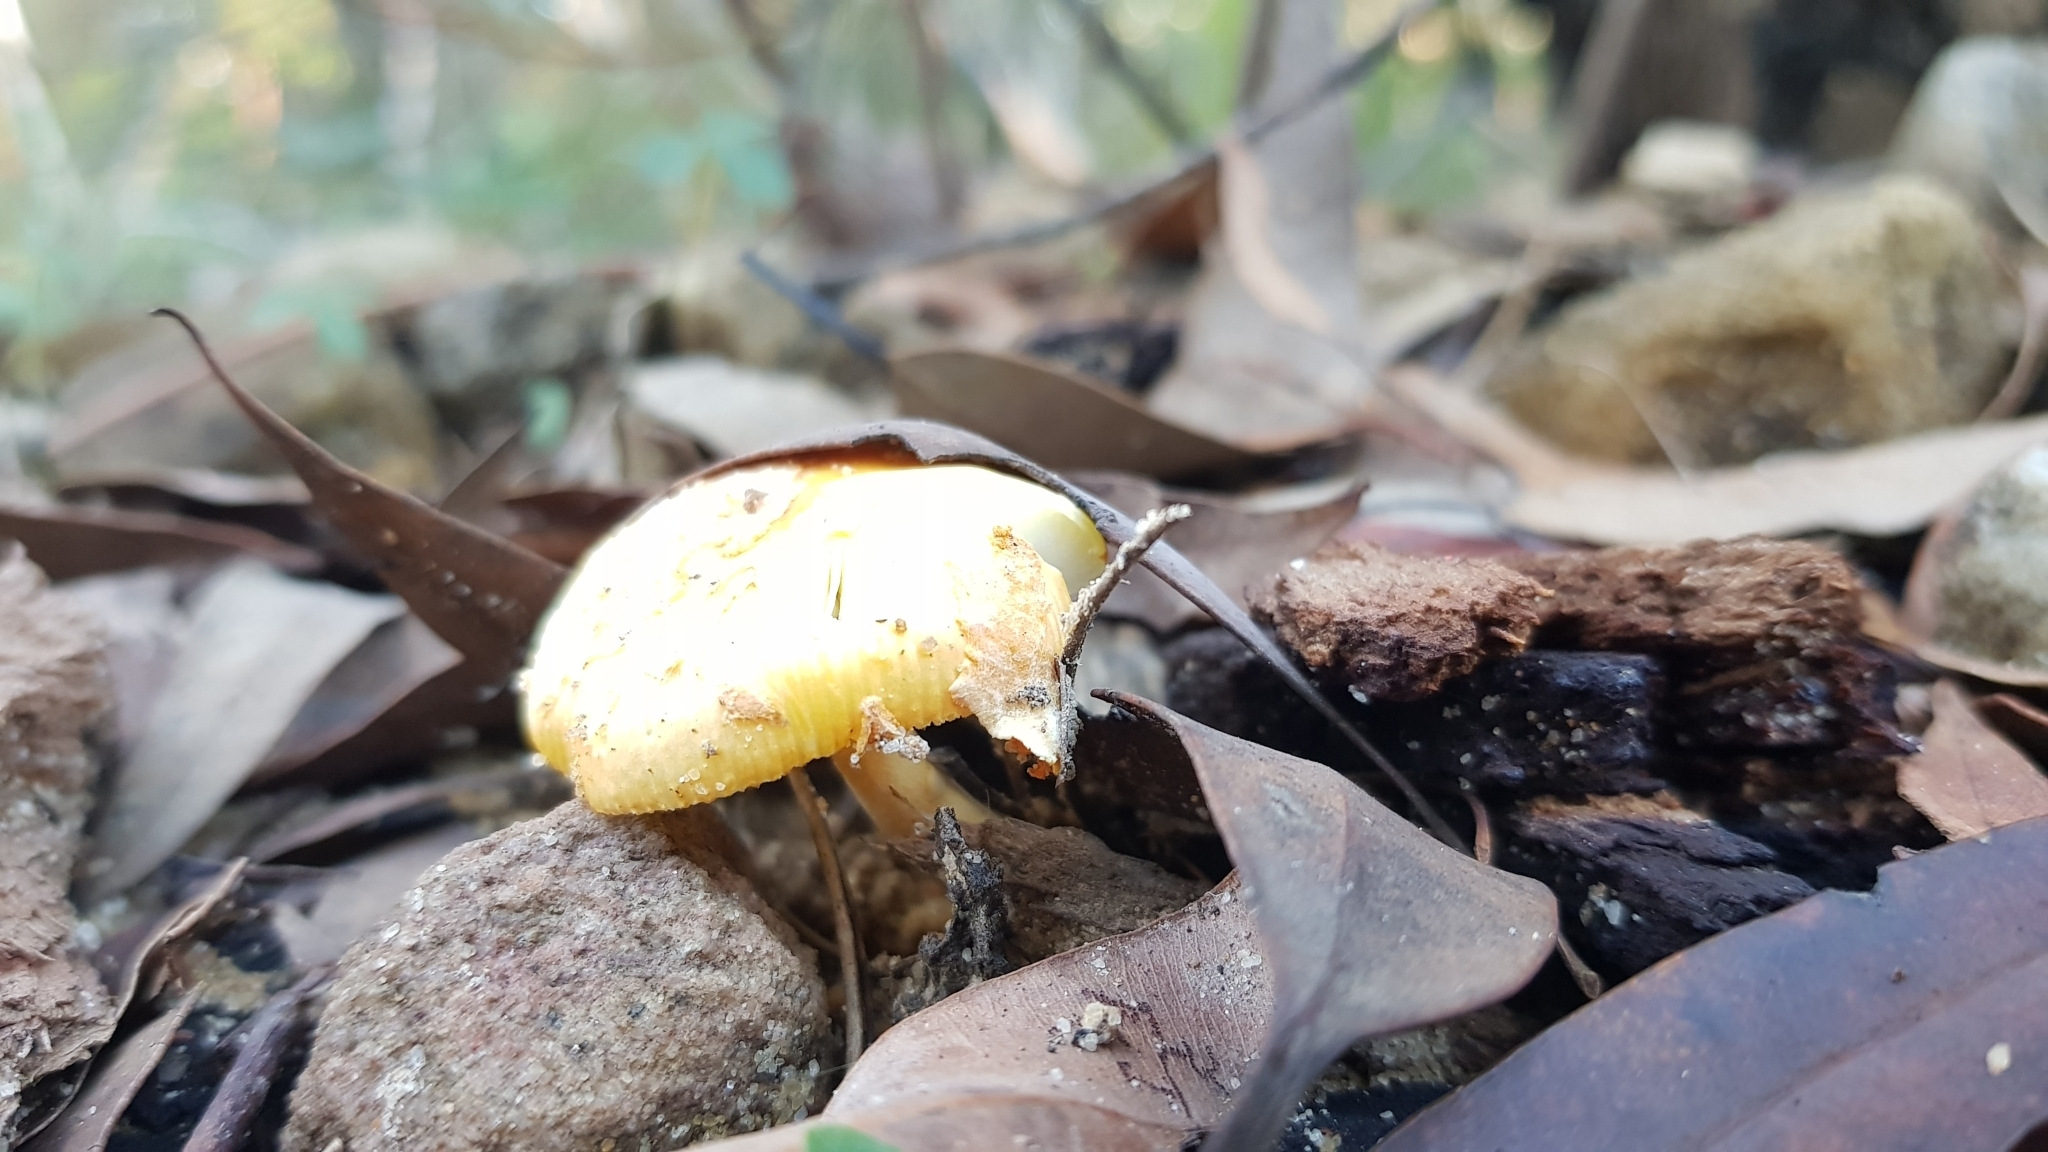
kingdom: Fungi
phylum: Basidiomycota
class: Agaricomycetes
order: Agaricales
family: Amanitaceae
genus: Amanita
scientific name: Amanita xanthocephala
